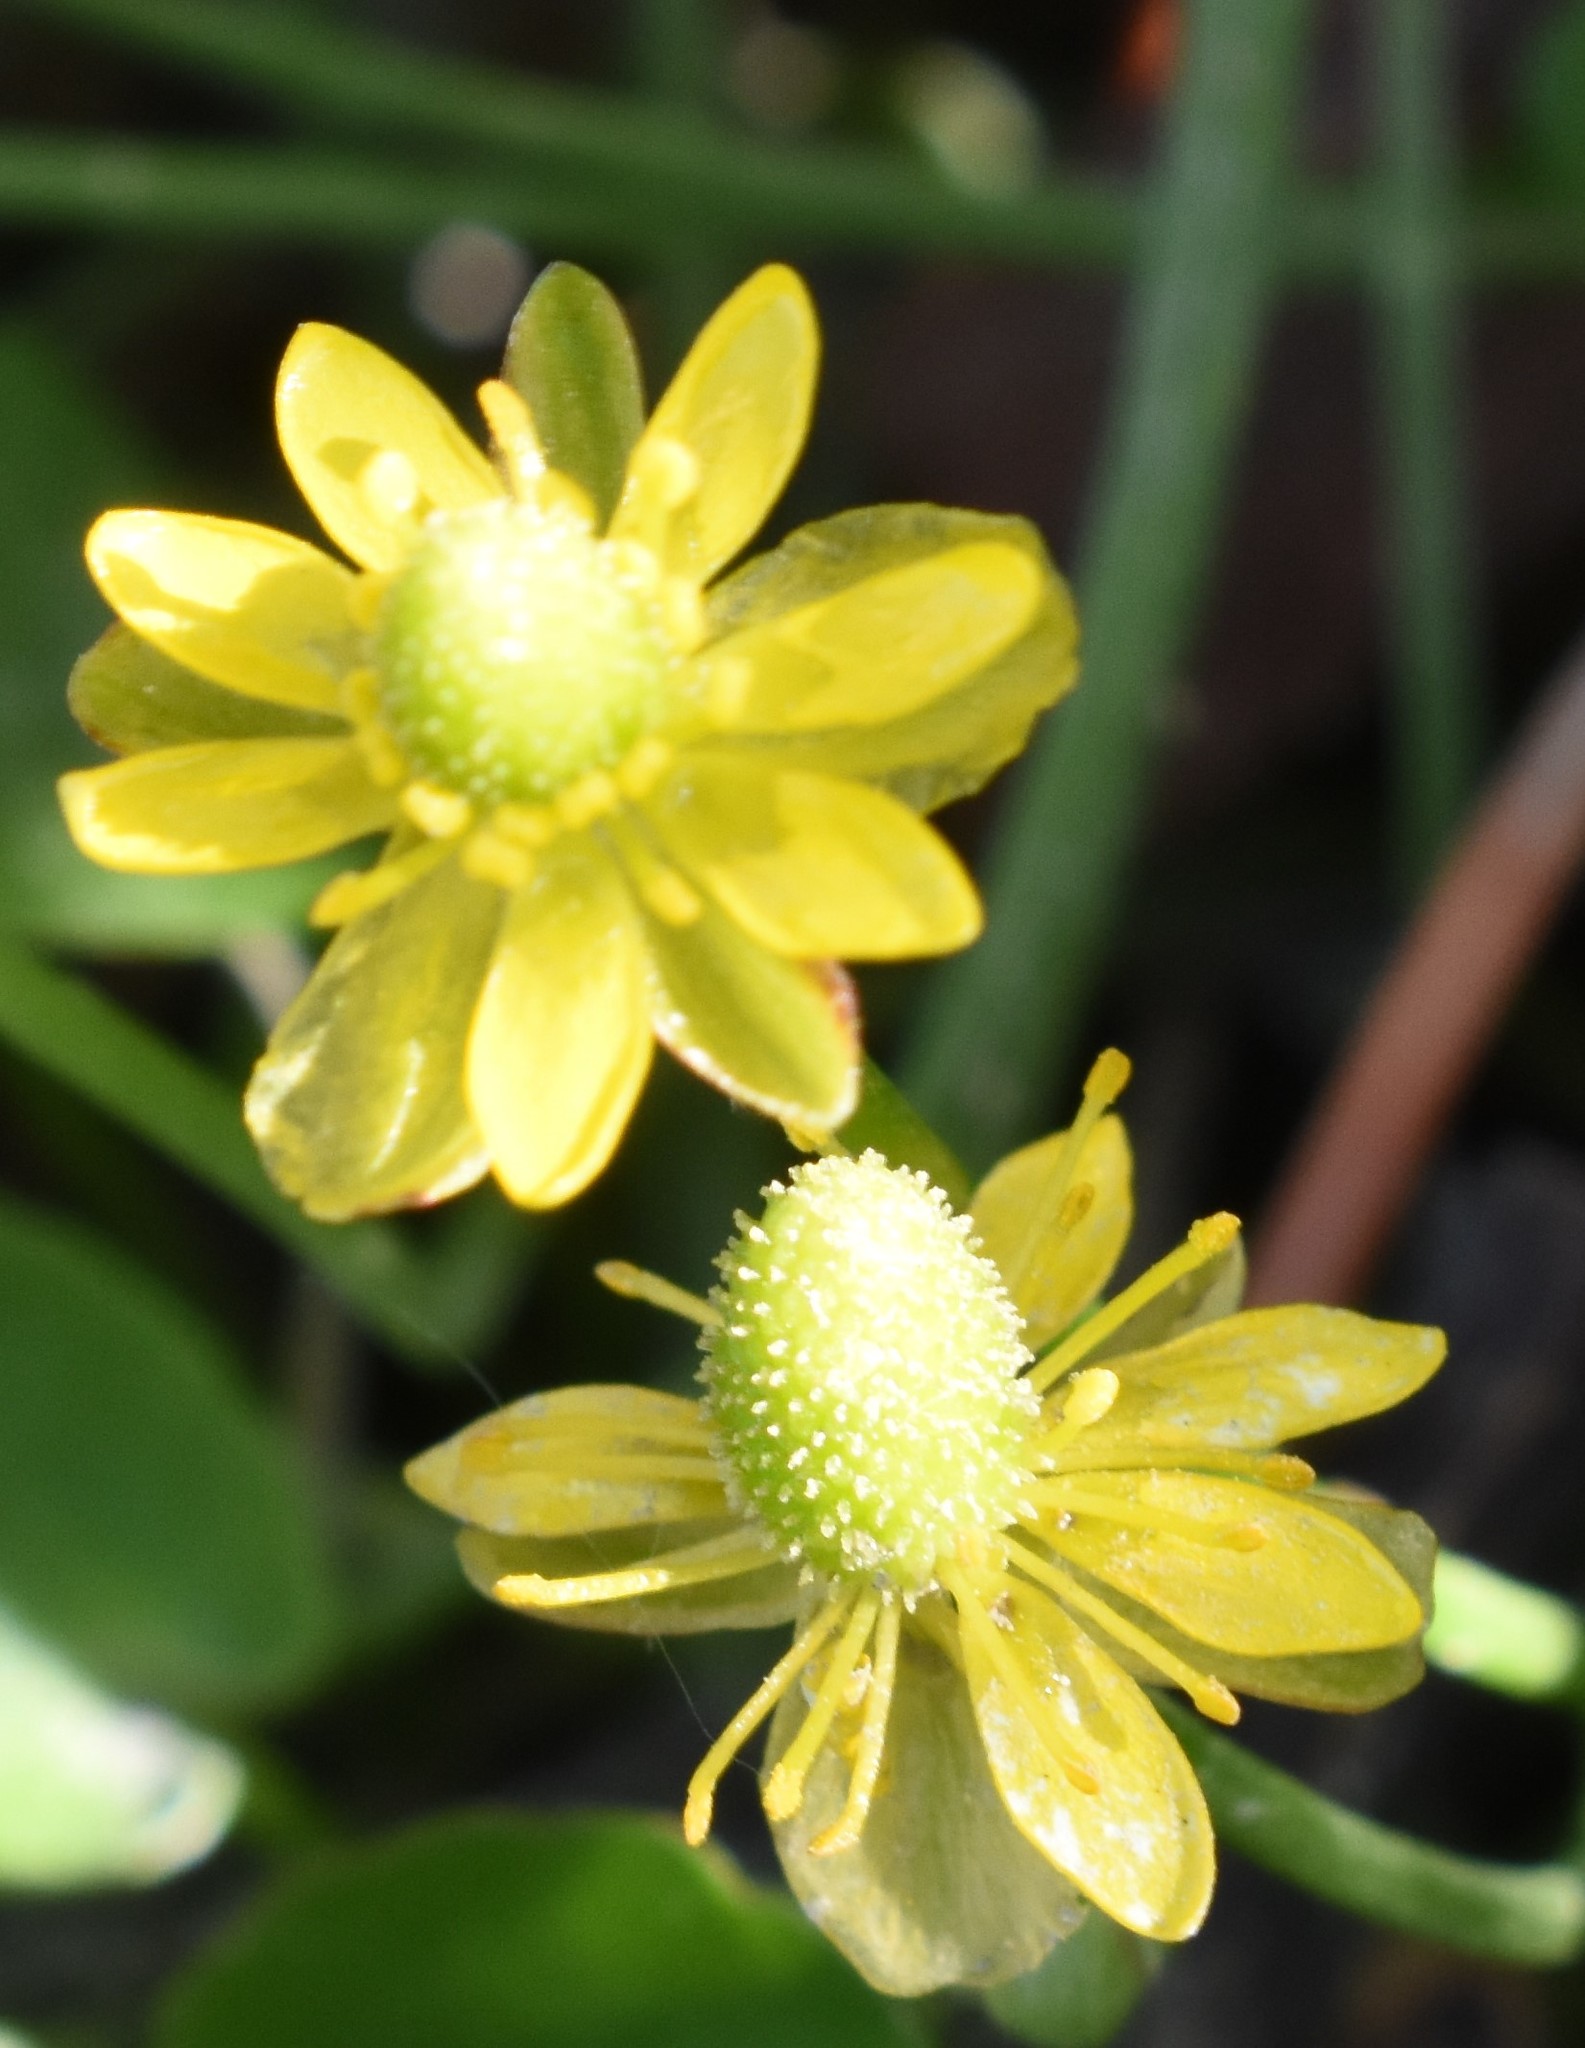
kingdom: Plantae
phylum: Tracheophyta
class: Magnoliopsida
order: Ranunculales
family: Ranunculaceae
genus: Halerpestes
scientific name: Halerpestes cymbalaria
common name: Seaside crowfoot
